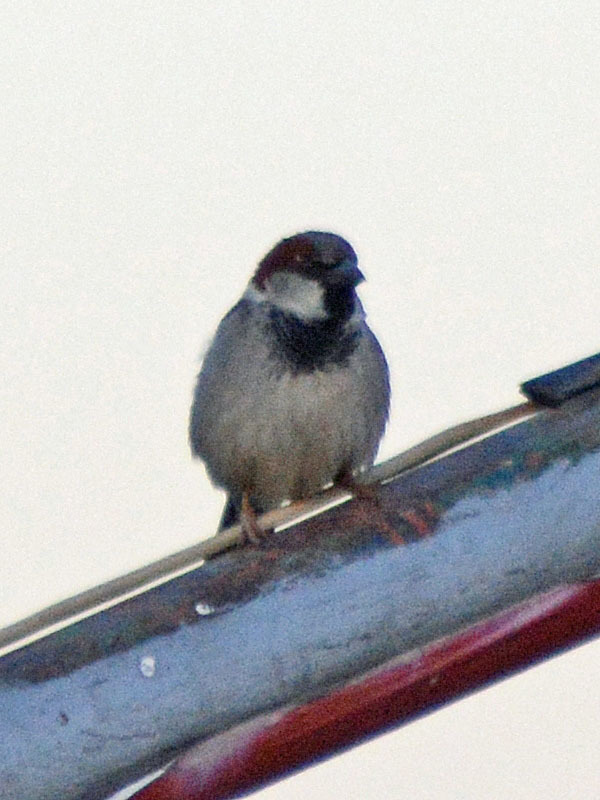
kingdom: Animalia
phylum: Chordata
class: Aves
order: Passeriformes
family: Passeridae
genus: Passer
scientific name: Passer domesticus
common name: House sparrow
